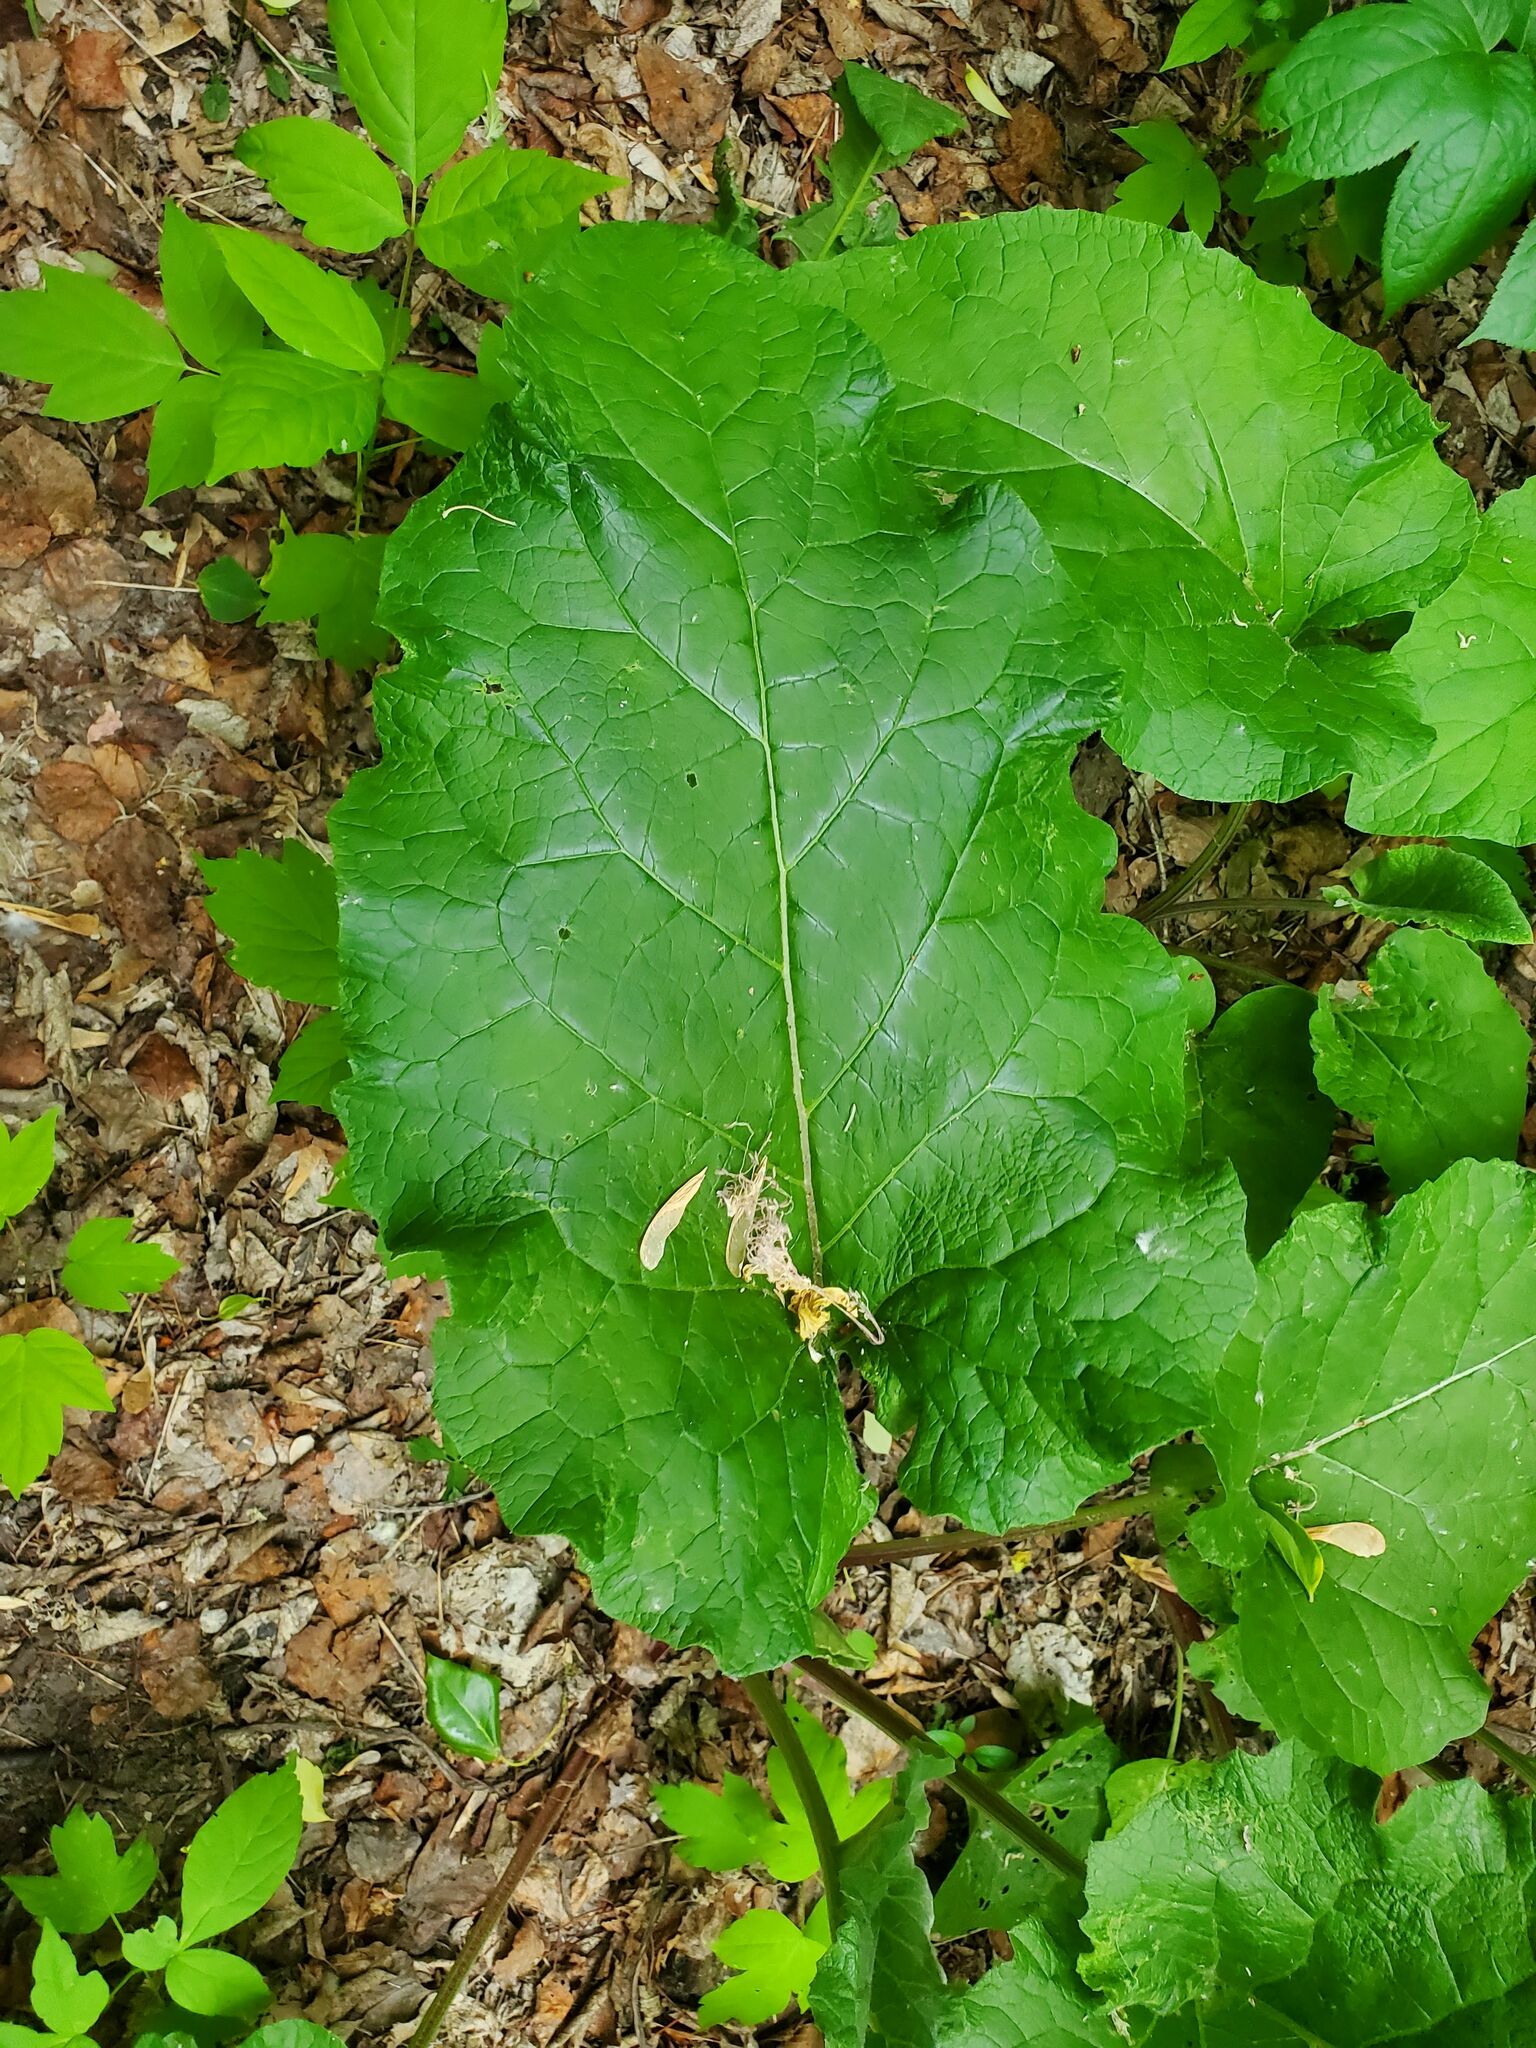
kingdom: Plantae
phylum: Tracheophyta
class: Magnoliopsida
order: Asterales
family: Asteraceae
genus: Arctium
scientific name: Arctium
